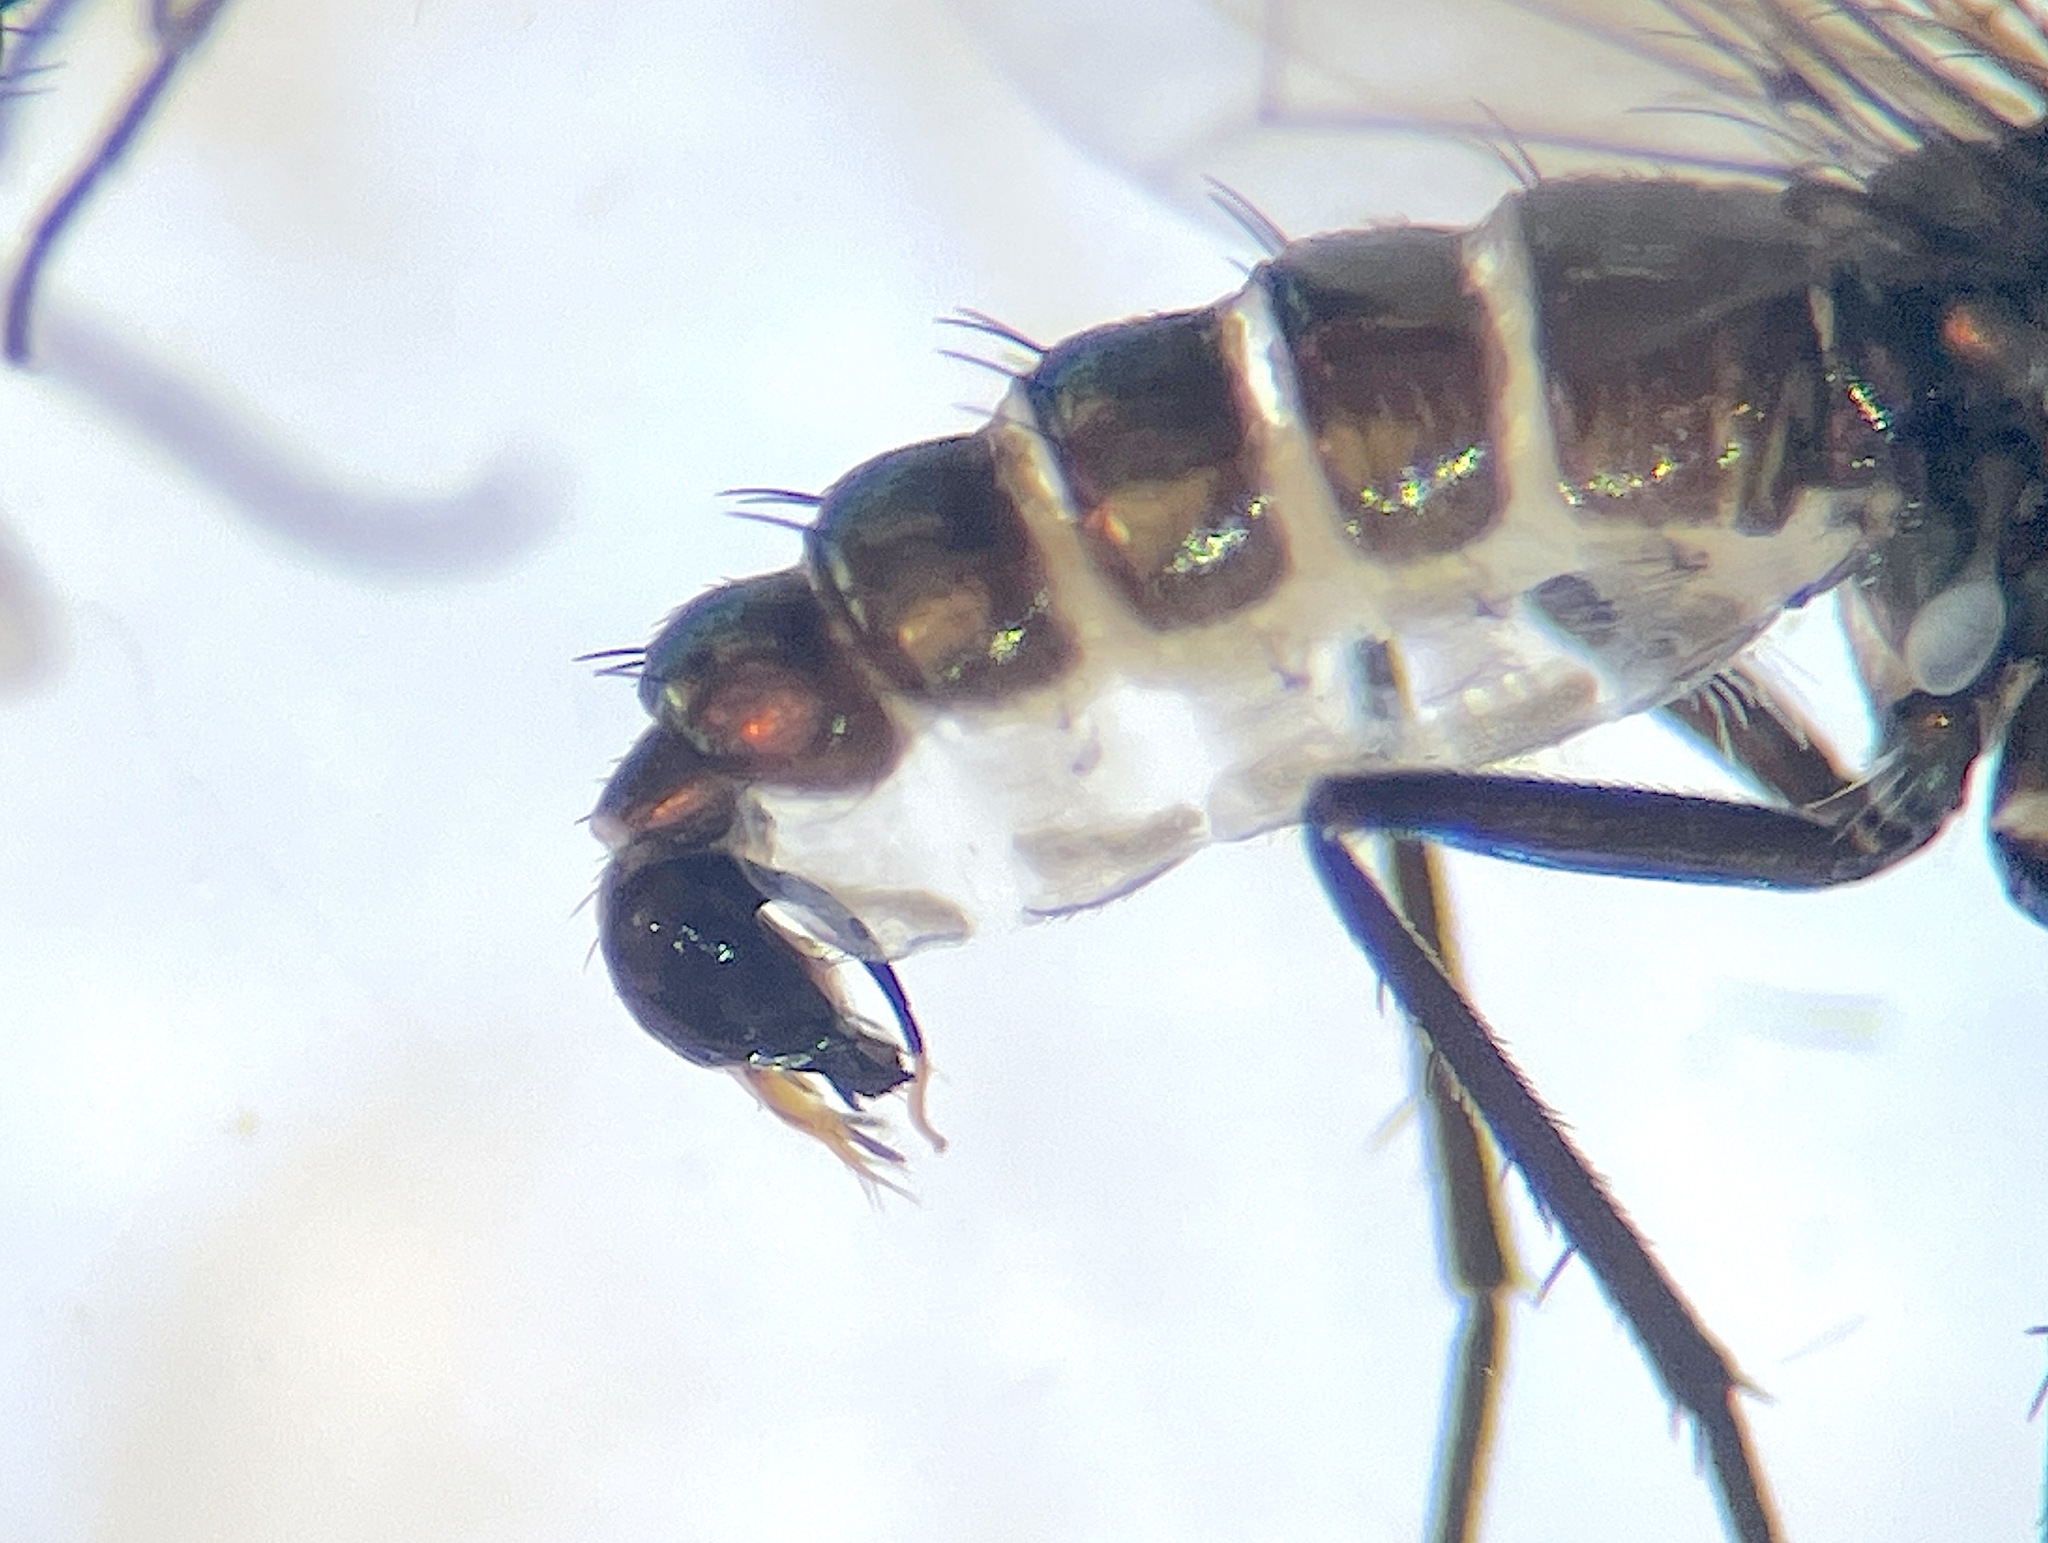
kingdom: Animalia
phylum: Arthropoda
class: Insecta
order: Diptera
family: Dolichopodidae
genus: Naufraga
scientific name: Naufraga hexachaeta
